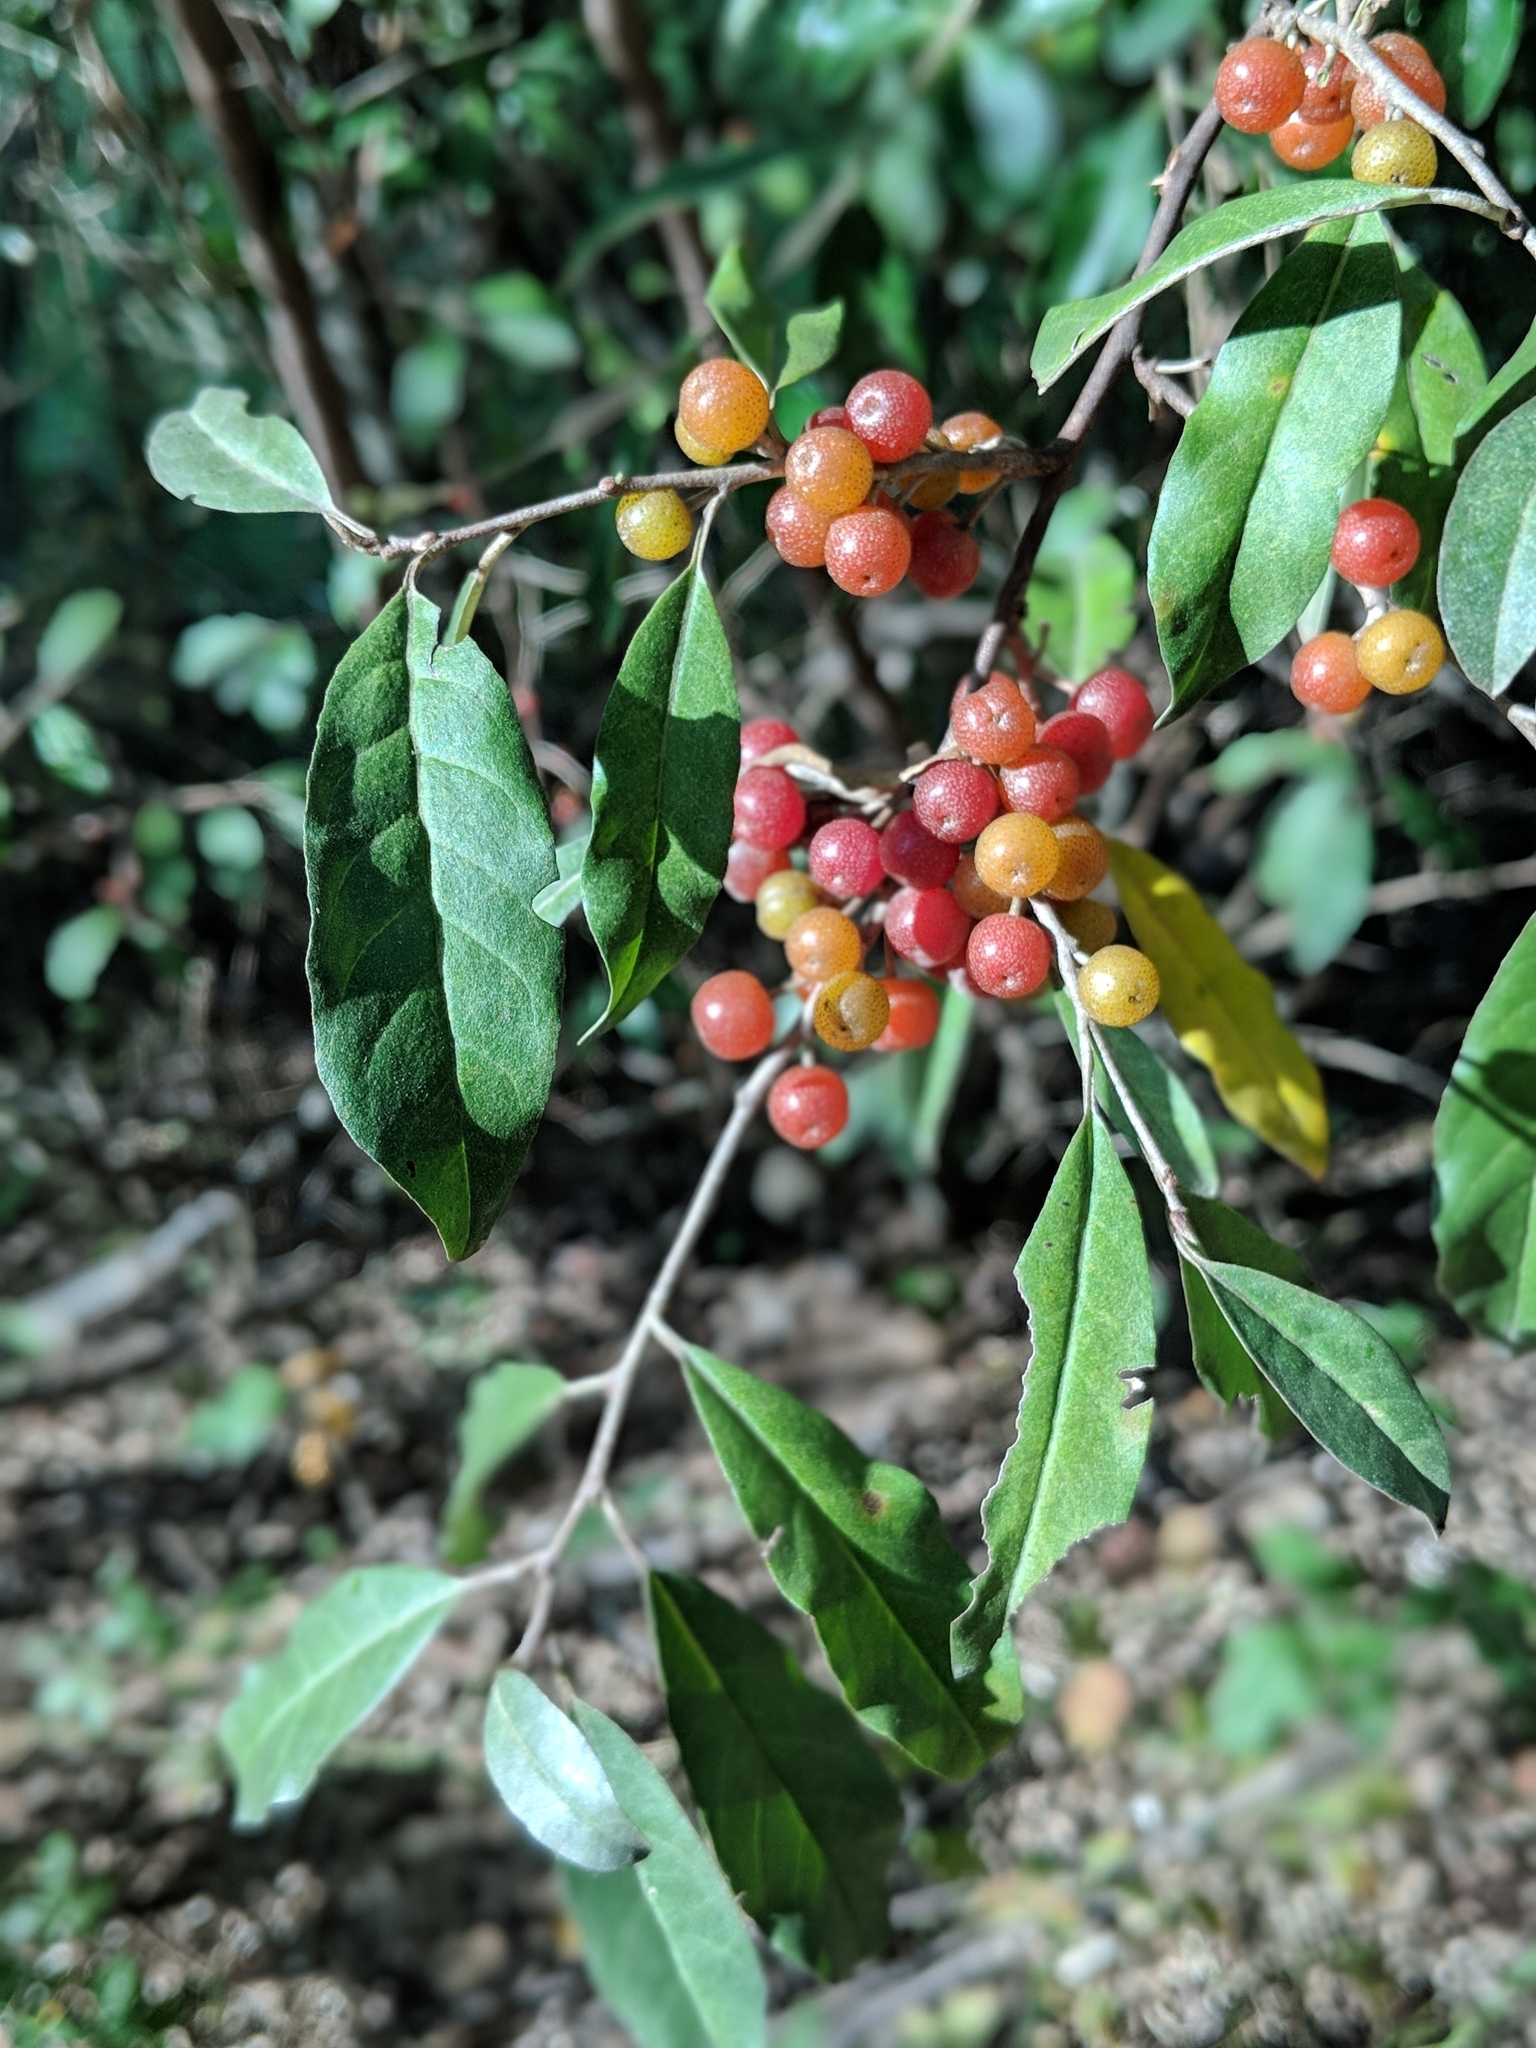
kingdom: Plantae
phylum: Tracheophyta
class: Magnoliopsida
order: Rosales
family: Elaeagnaceae
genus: Elaeagnus
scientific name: Elaeagnus umbellata
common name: Autumn olive
